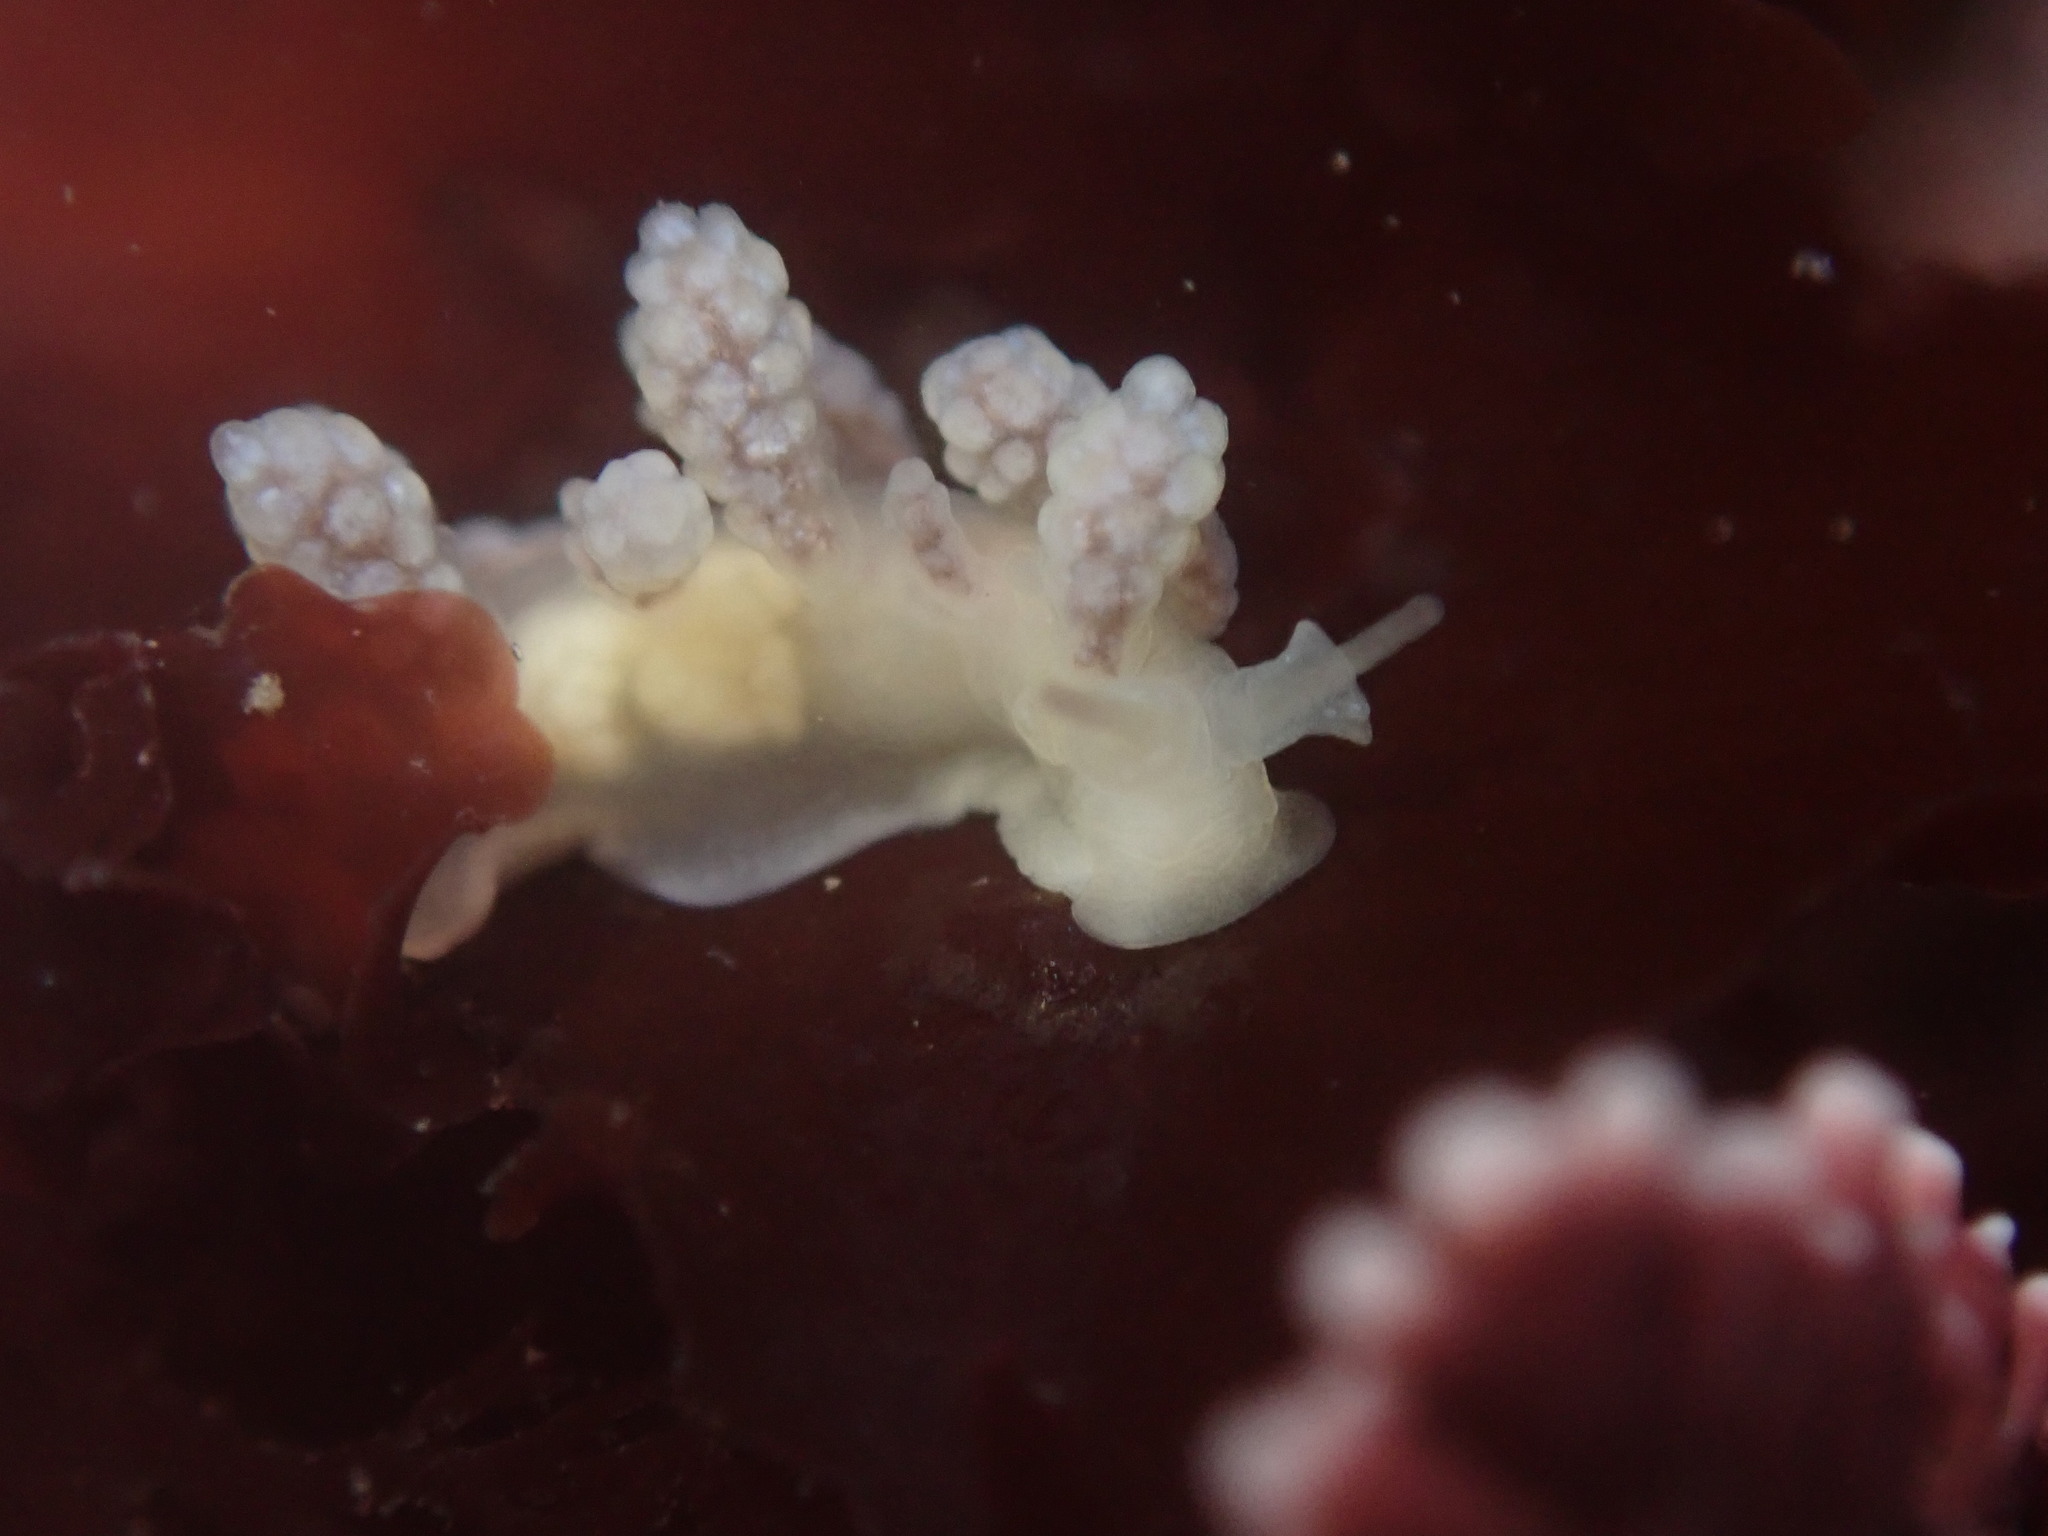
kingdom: Animalia
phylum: Mollusca
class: Gastropoda
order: Nudibranchia
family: Dotidae
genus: Doto
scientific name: Doto amyra
